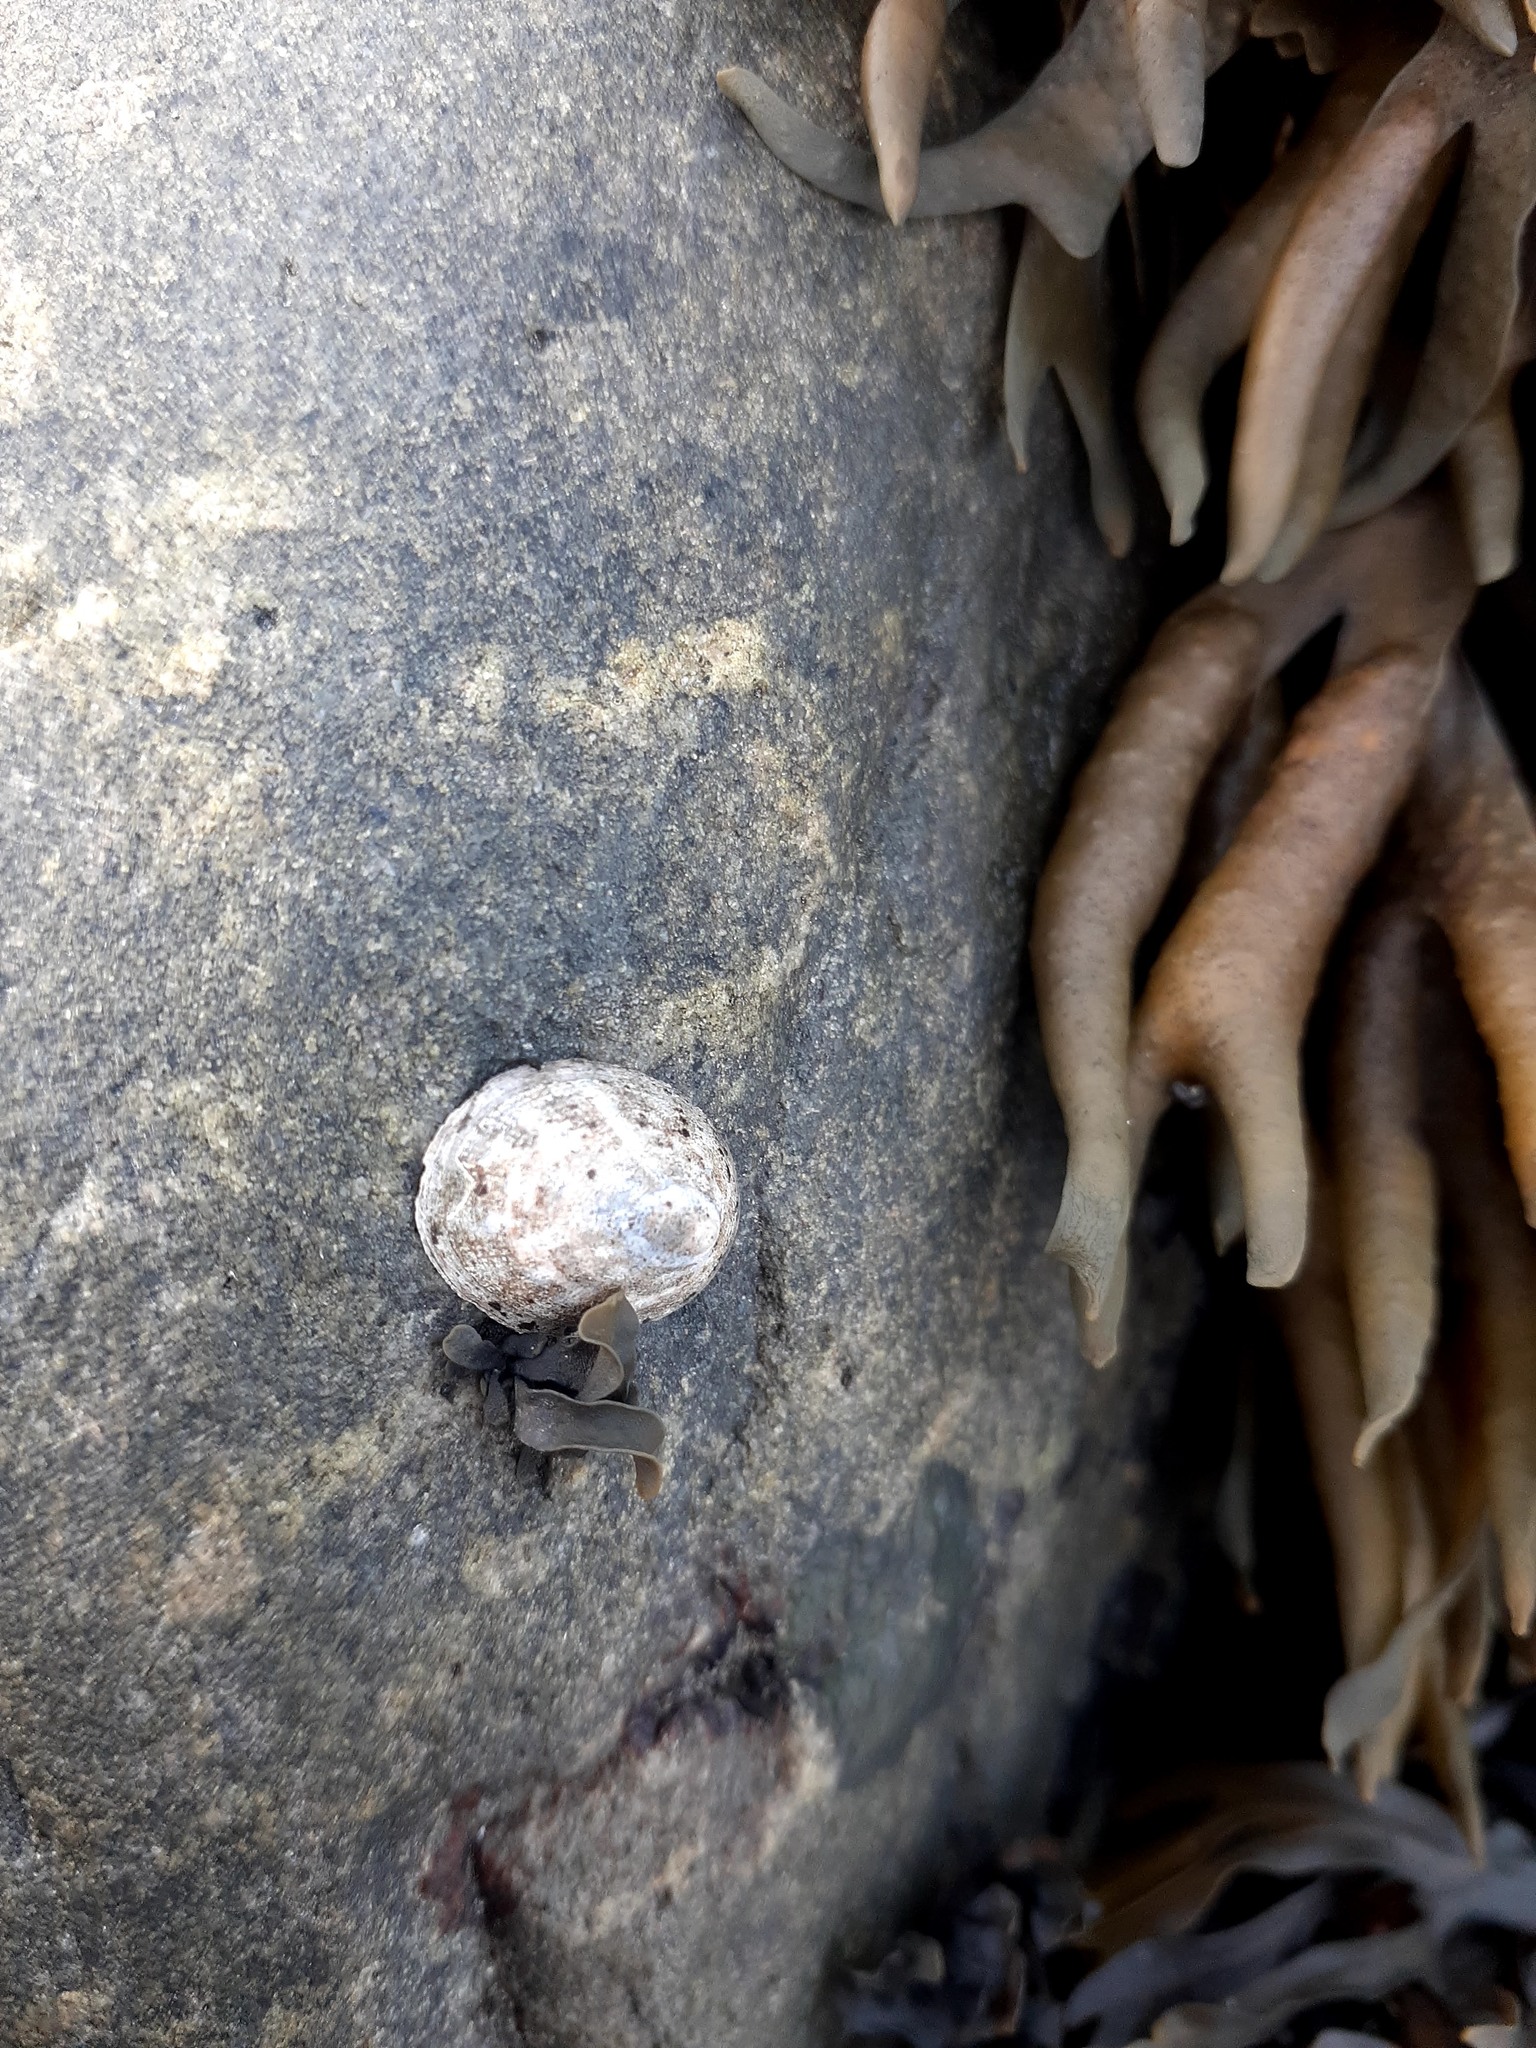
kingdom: Animalia
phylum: Mollusca
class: Gastropoda
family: Lottiidae
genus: Testudinalia
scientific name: Testudinalia testudinalis
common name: Common tortoiseshell limpet
